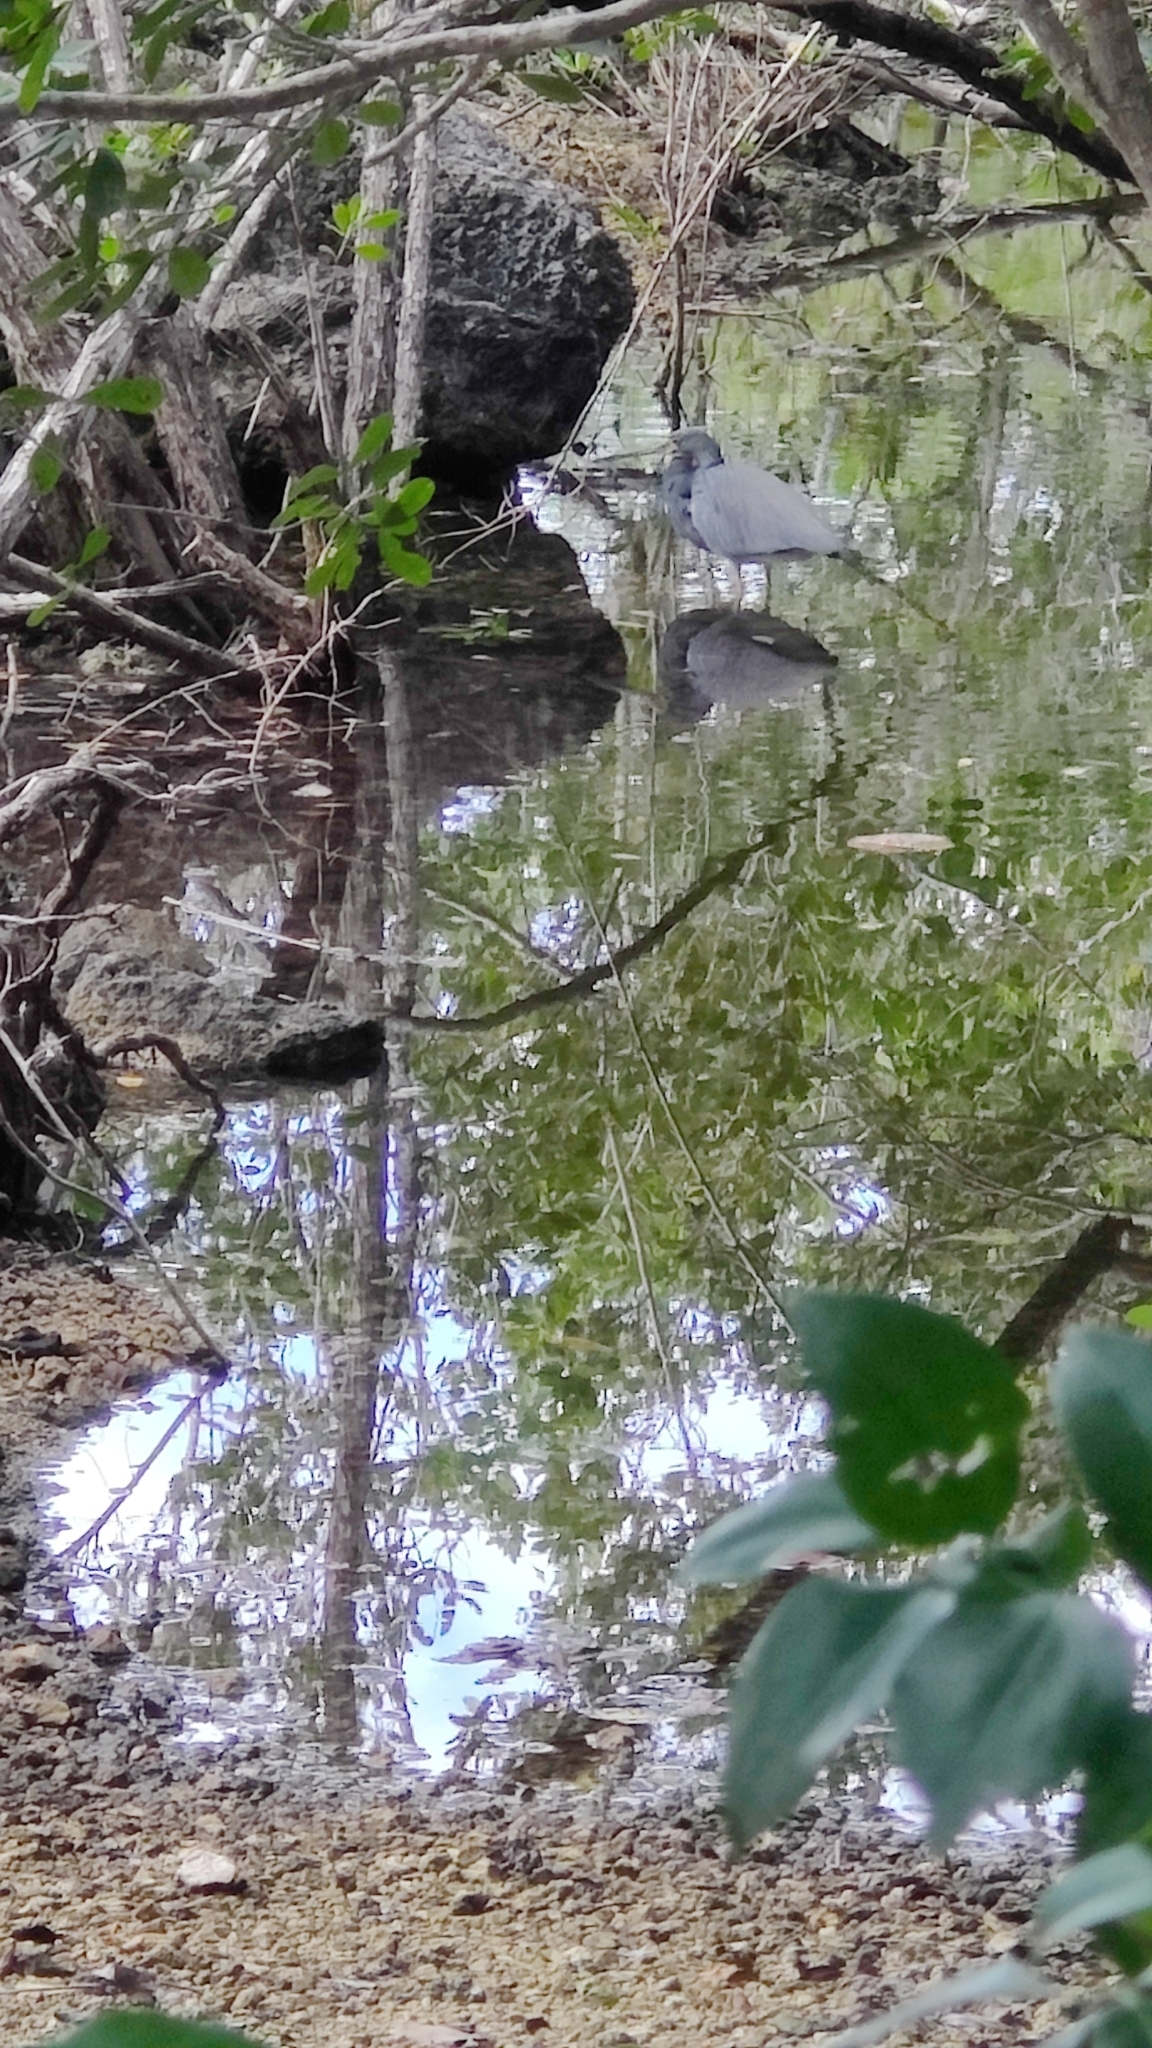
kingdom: Animalia
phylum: Chordata
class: Aves
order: Pelecaniformes
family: Ardeidae
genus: Egretta
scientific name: Egretta tricolor
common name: Tricolored heron
